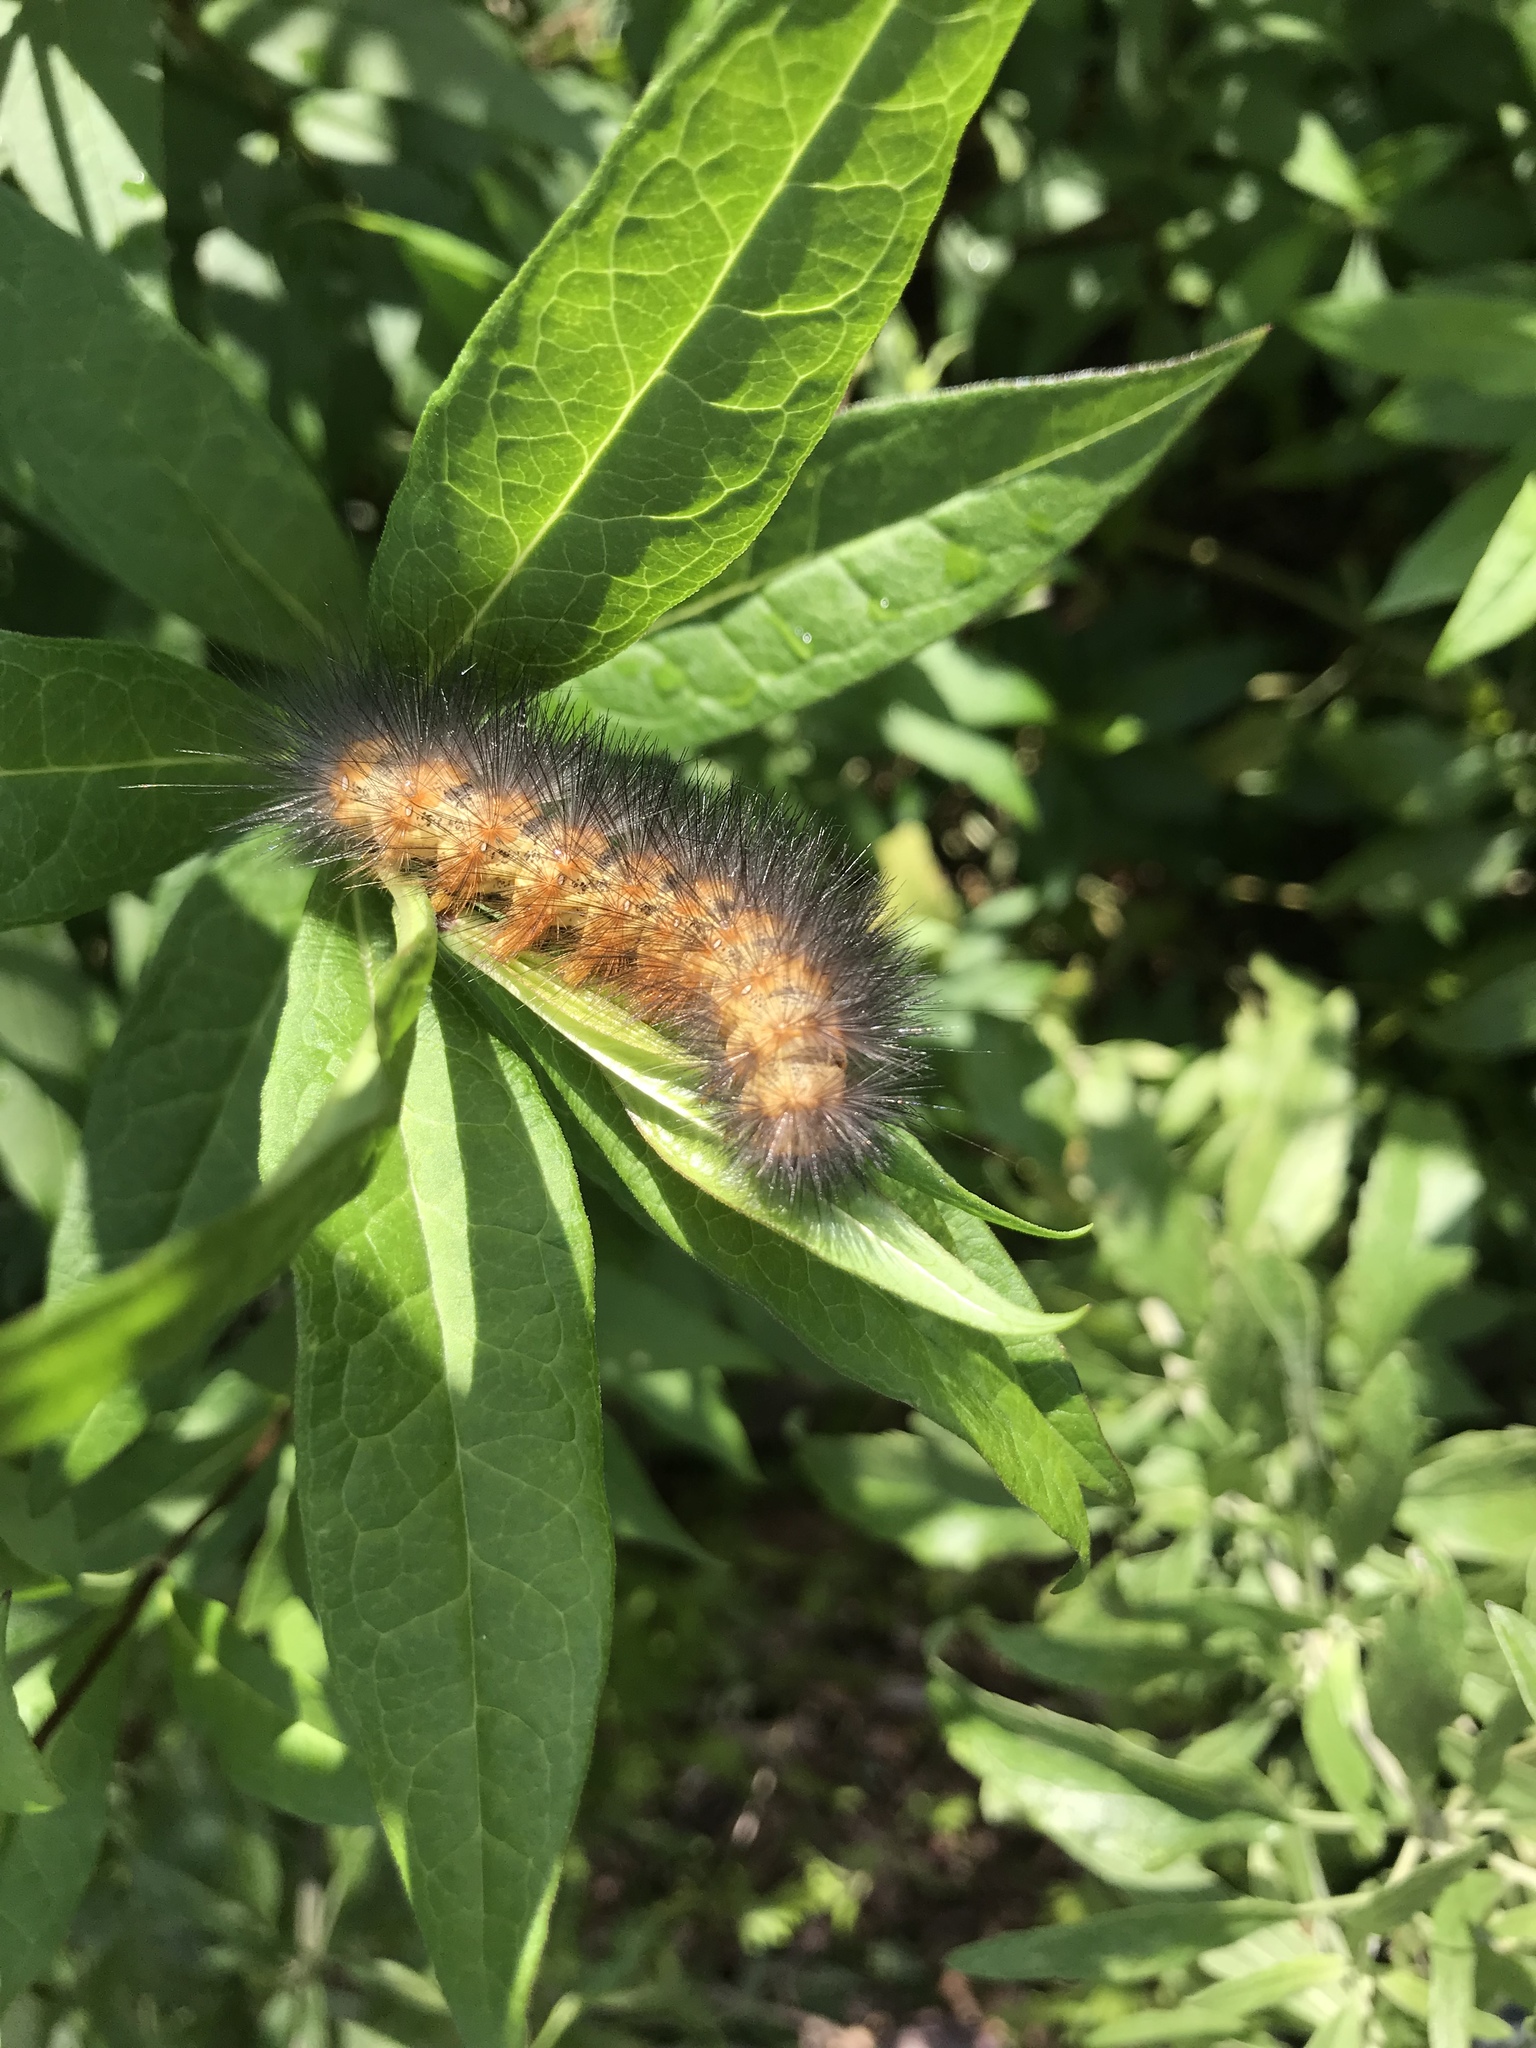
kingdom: Animalia
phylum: Arthropoda
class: Insecta
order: Lepidoptera
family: Erebidae
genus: Estigmene
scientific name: Estigmene acrea
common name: Salt marsh moth
